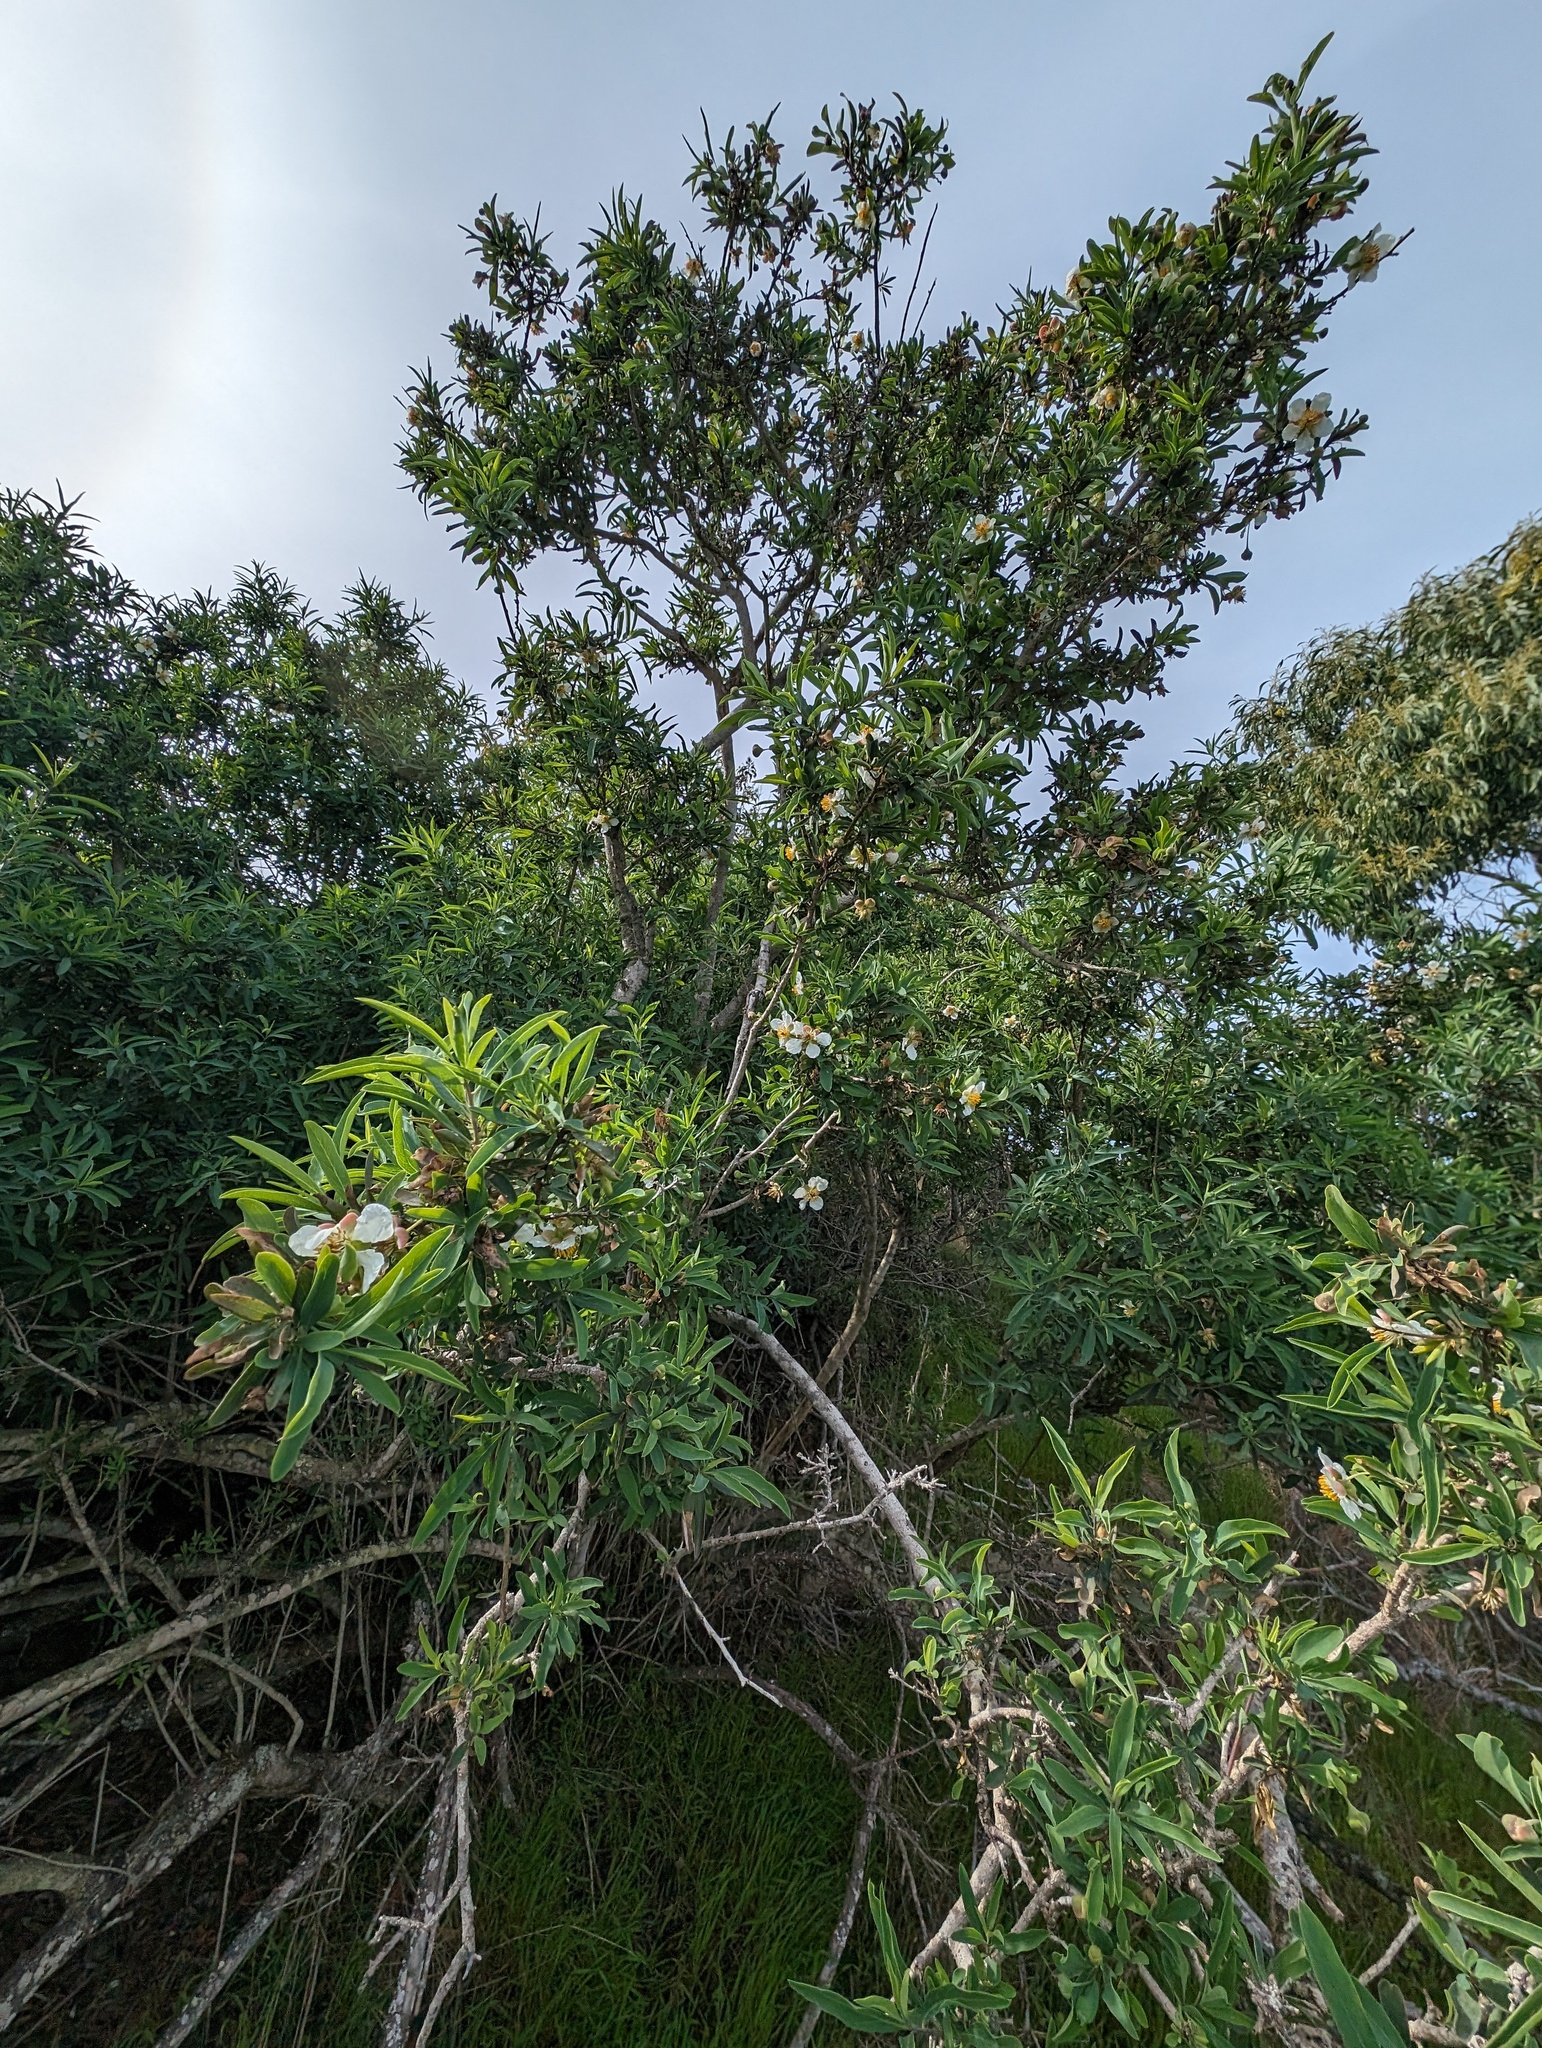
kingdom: Plantae
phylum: Tracheophyta
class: Magnoliopsida
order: Crossosomatales
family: Crossosomataceae
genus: Crossosoma
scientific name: Crossosoma californicum
